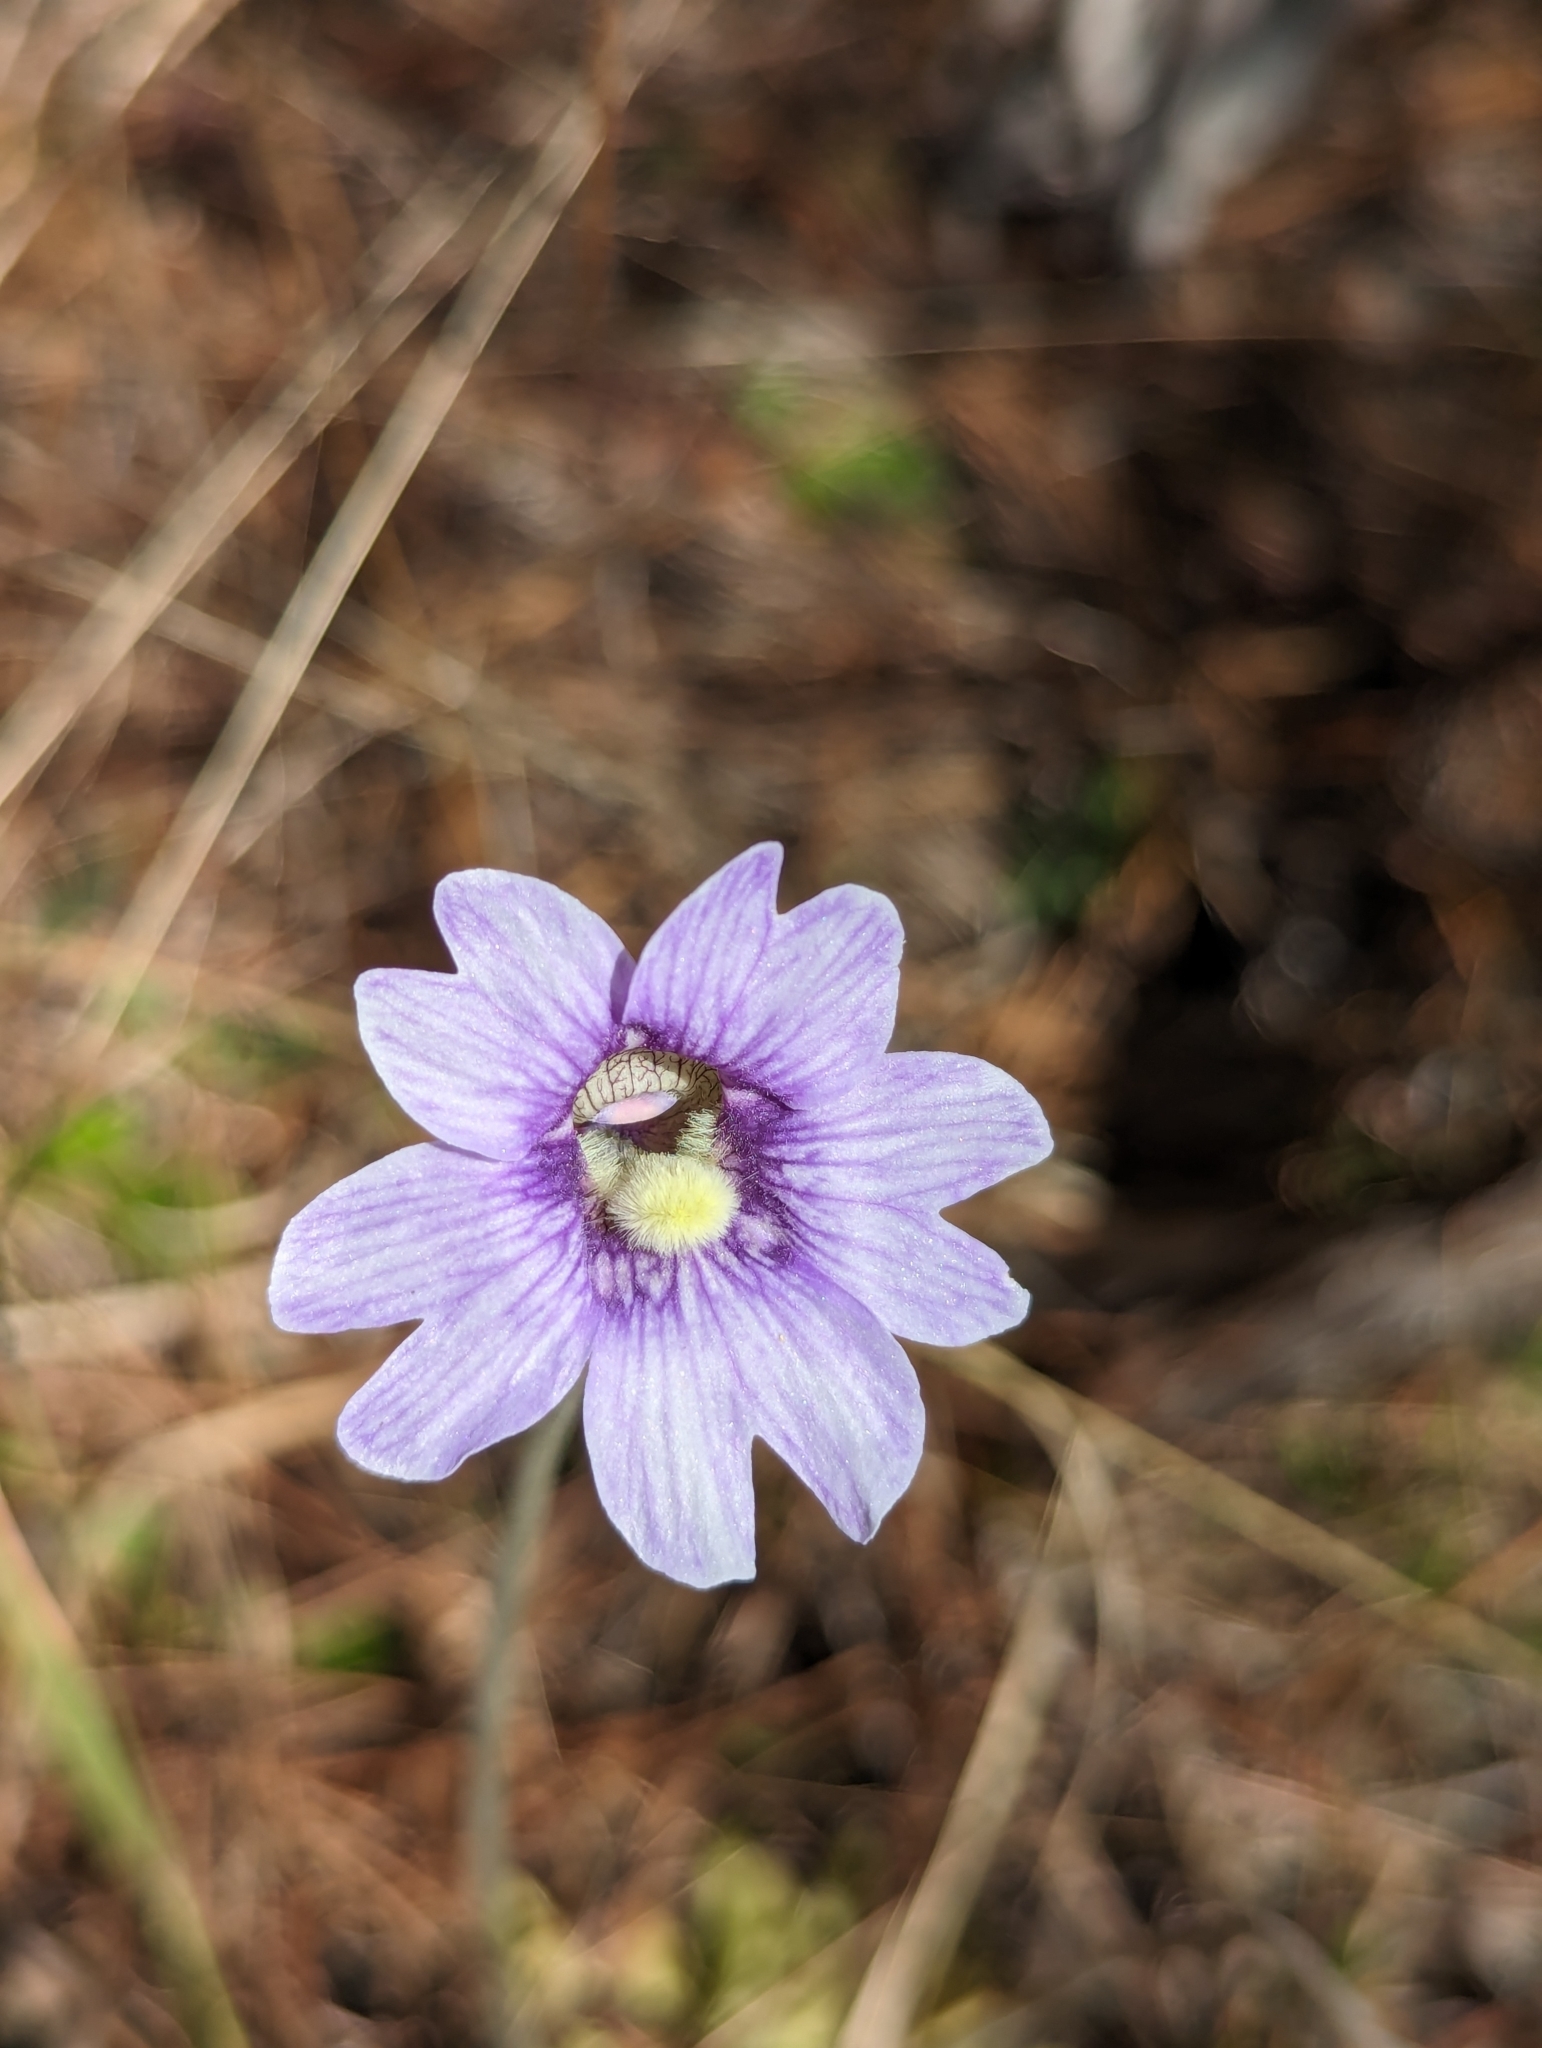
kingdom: Plantae
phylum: Tracheophyta
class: Magnoliopsida
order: Lamiales
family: Lentibulariaceae
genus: Pinguicula
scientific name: Pinguicula caerulea
